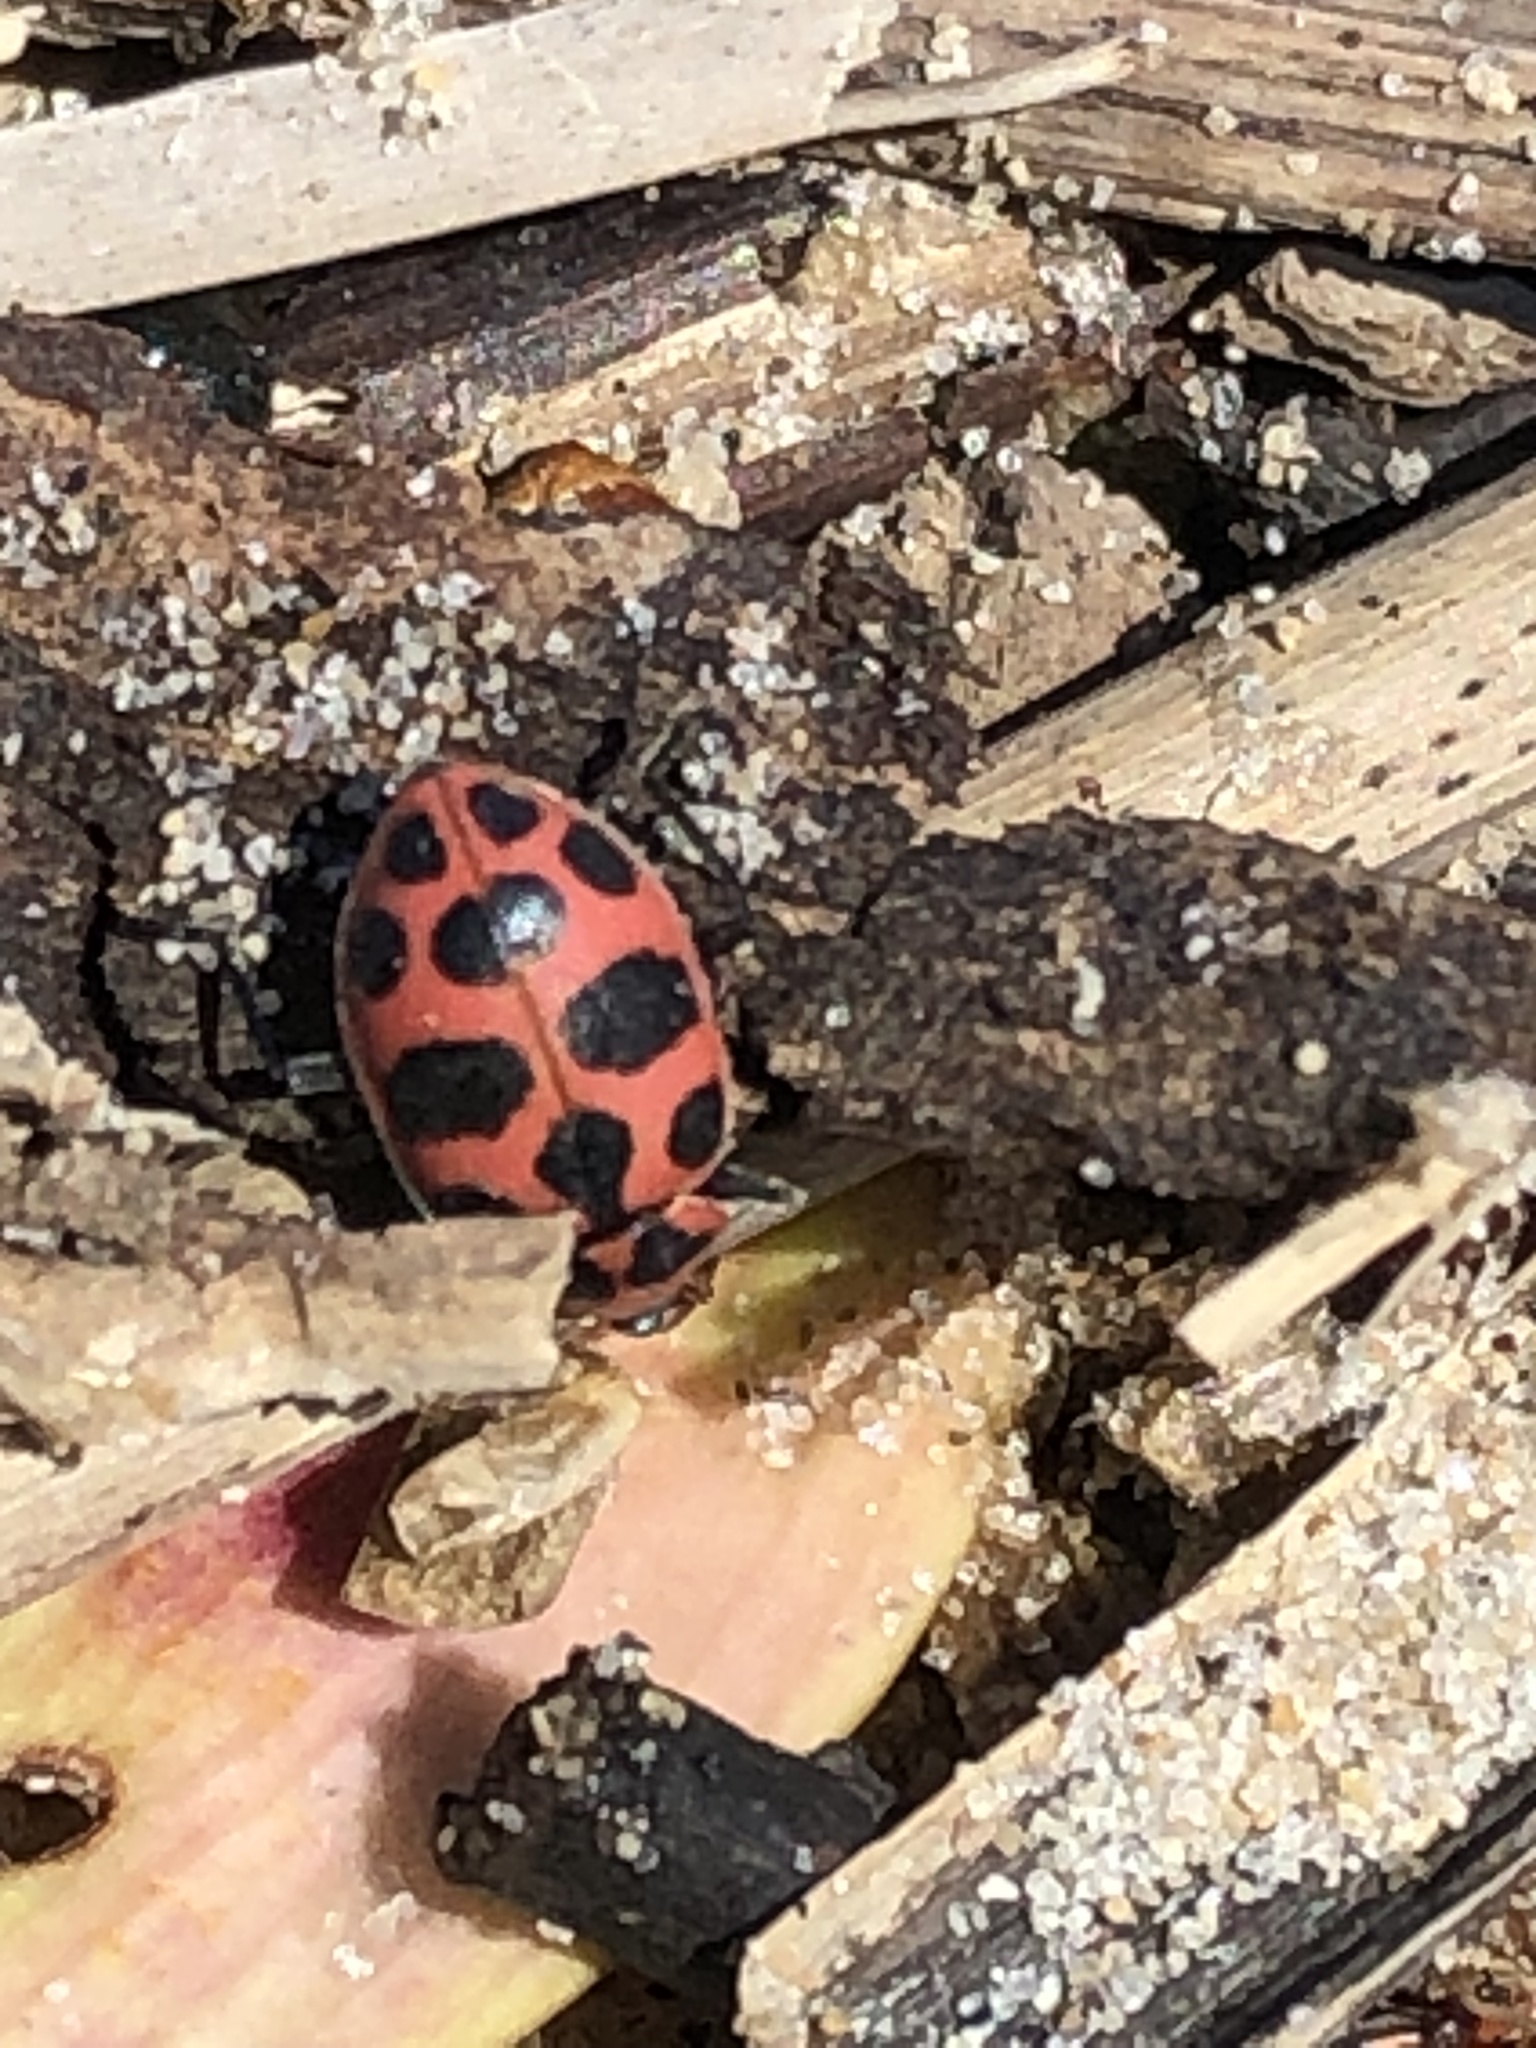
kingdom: Animalia
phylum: Arthropoda
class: Insecta
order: Coleoptera
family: Coccinellidae
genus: Coleomegilla
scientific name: Coleomegilla maculata
